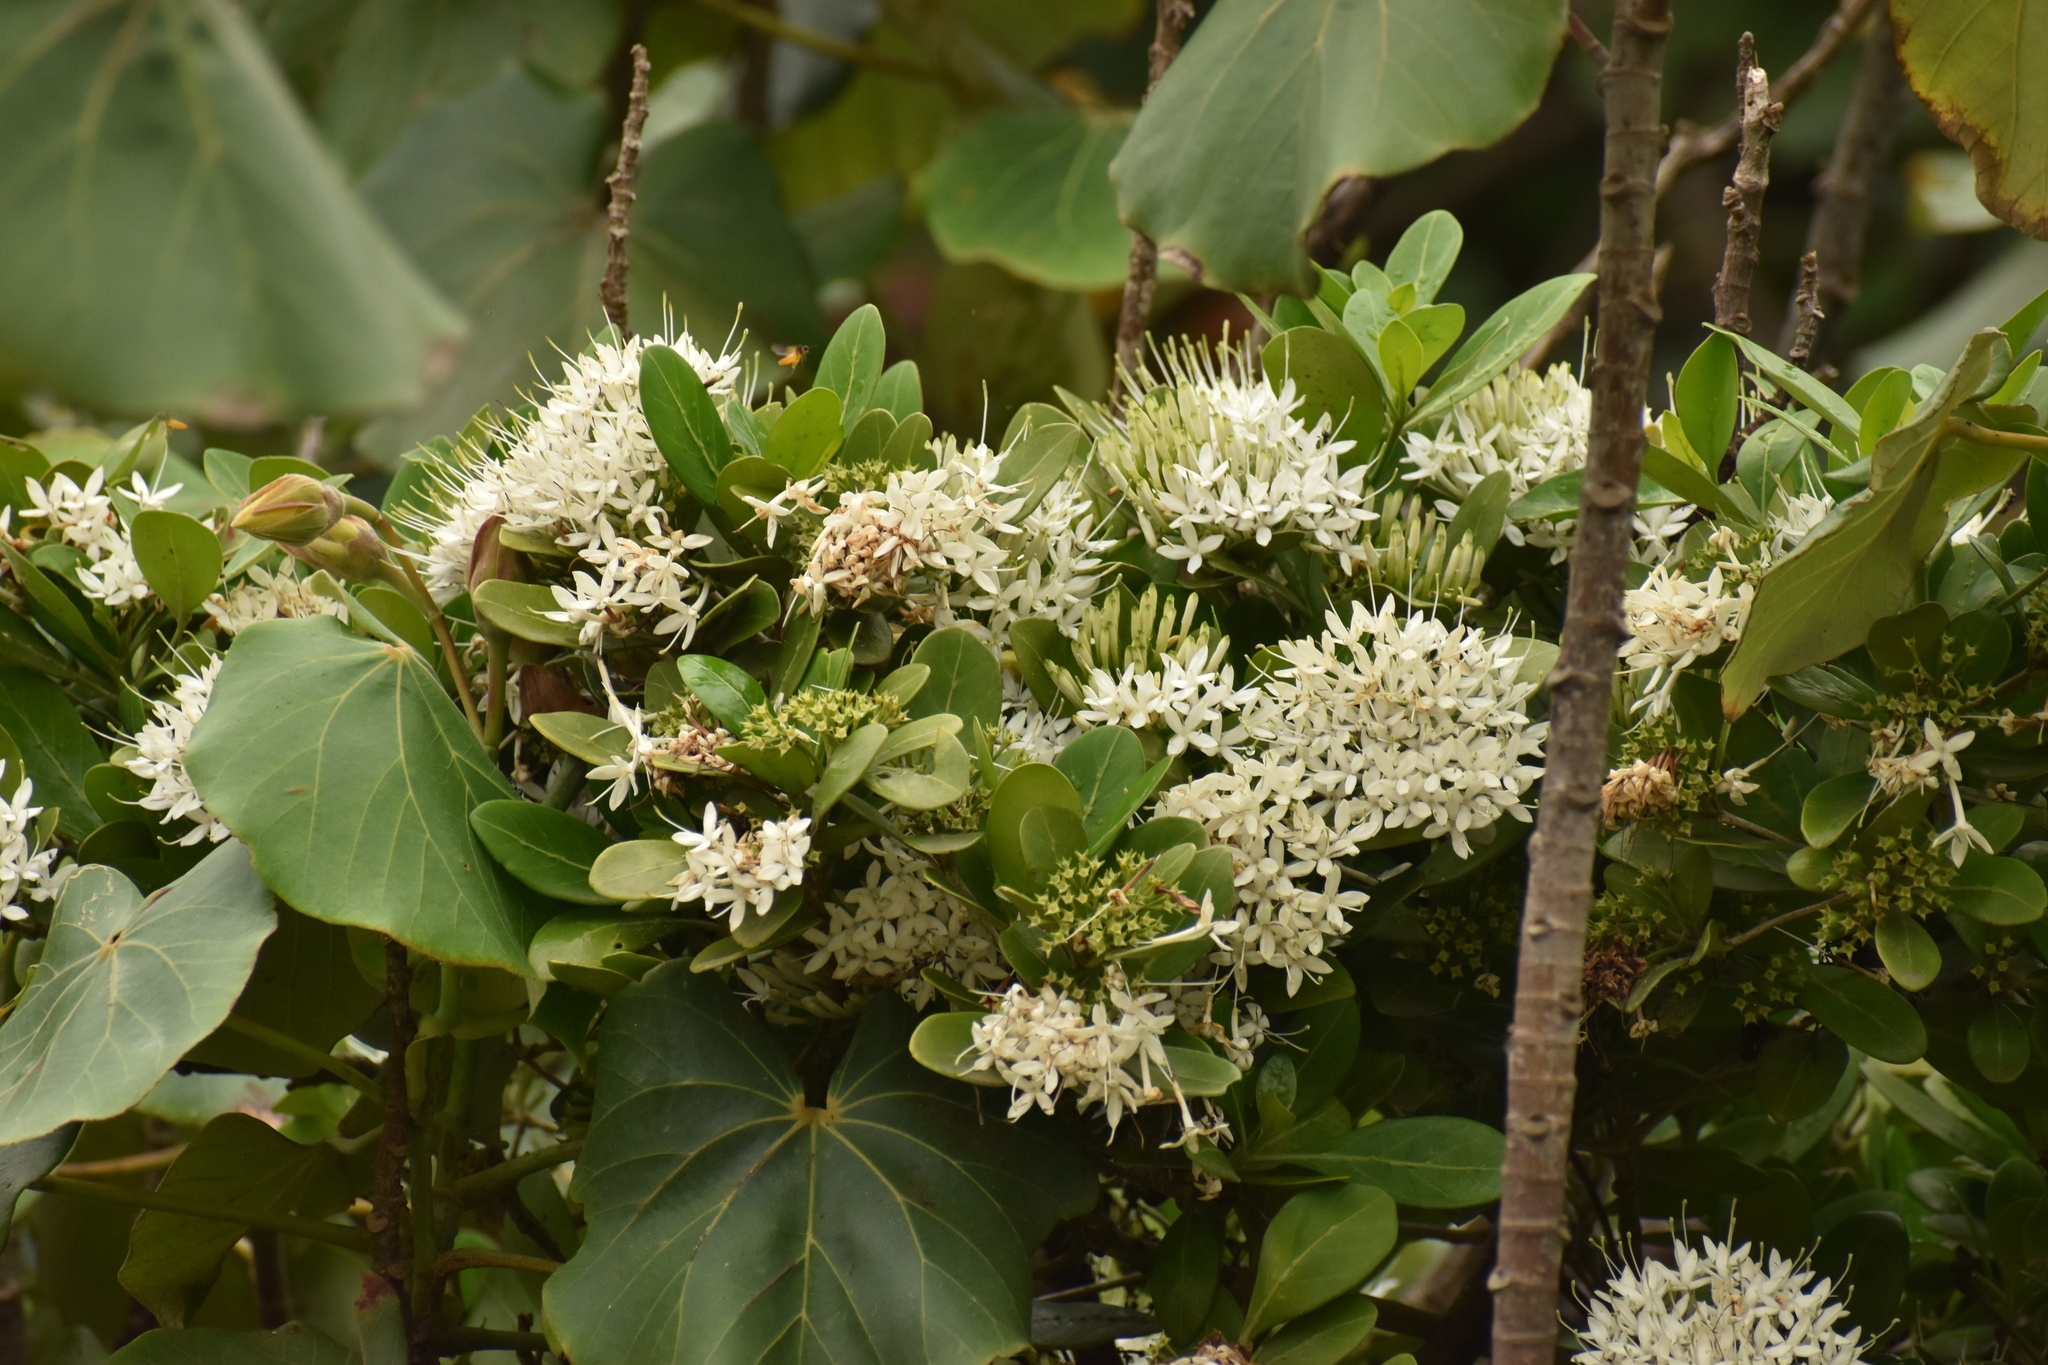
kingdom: Plantae
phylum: Tracheophyta
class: Magnoliopsida
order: Gentianales
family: Rubiaceae
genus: Pavetta
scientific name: Pavetta lanceolata
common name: Weeping brides-bush
